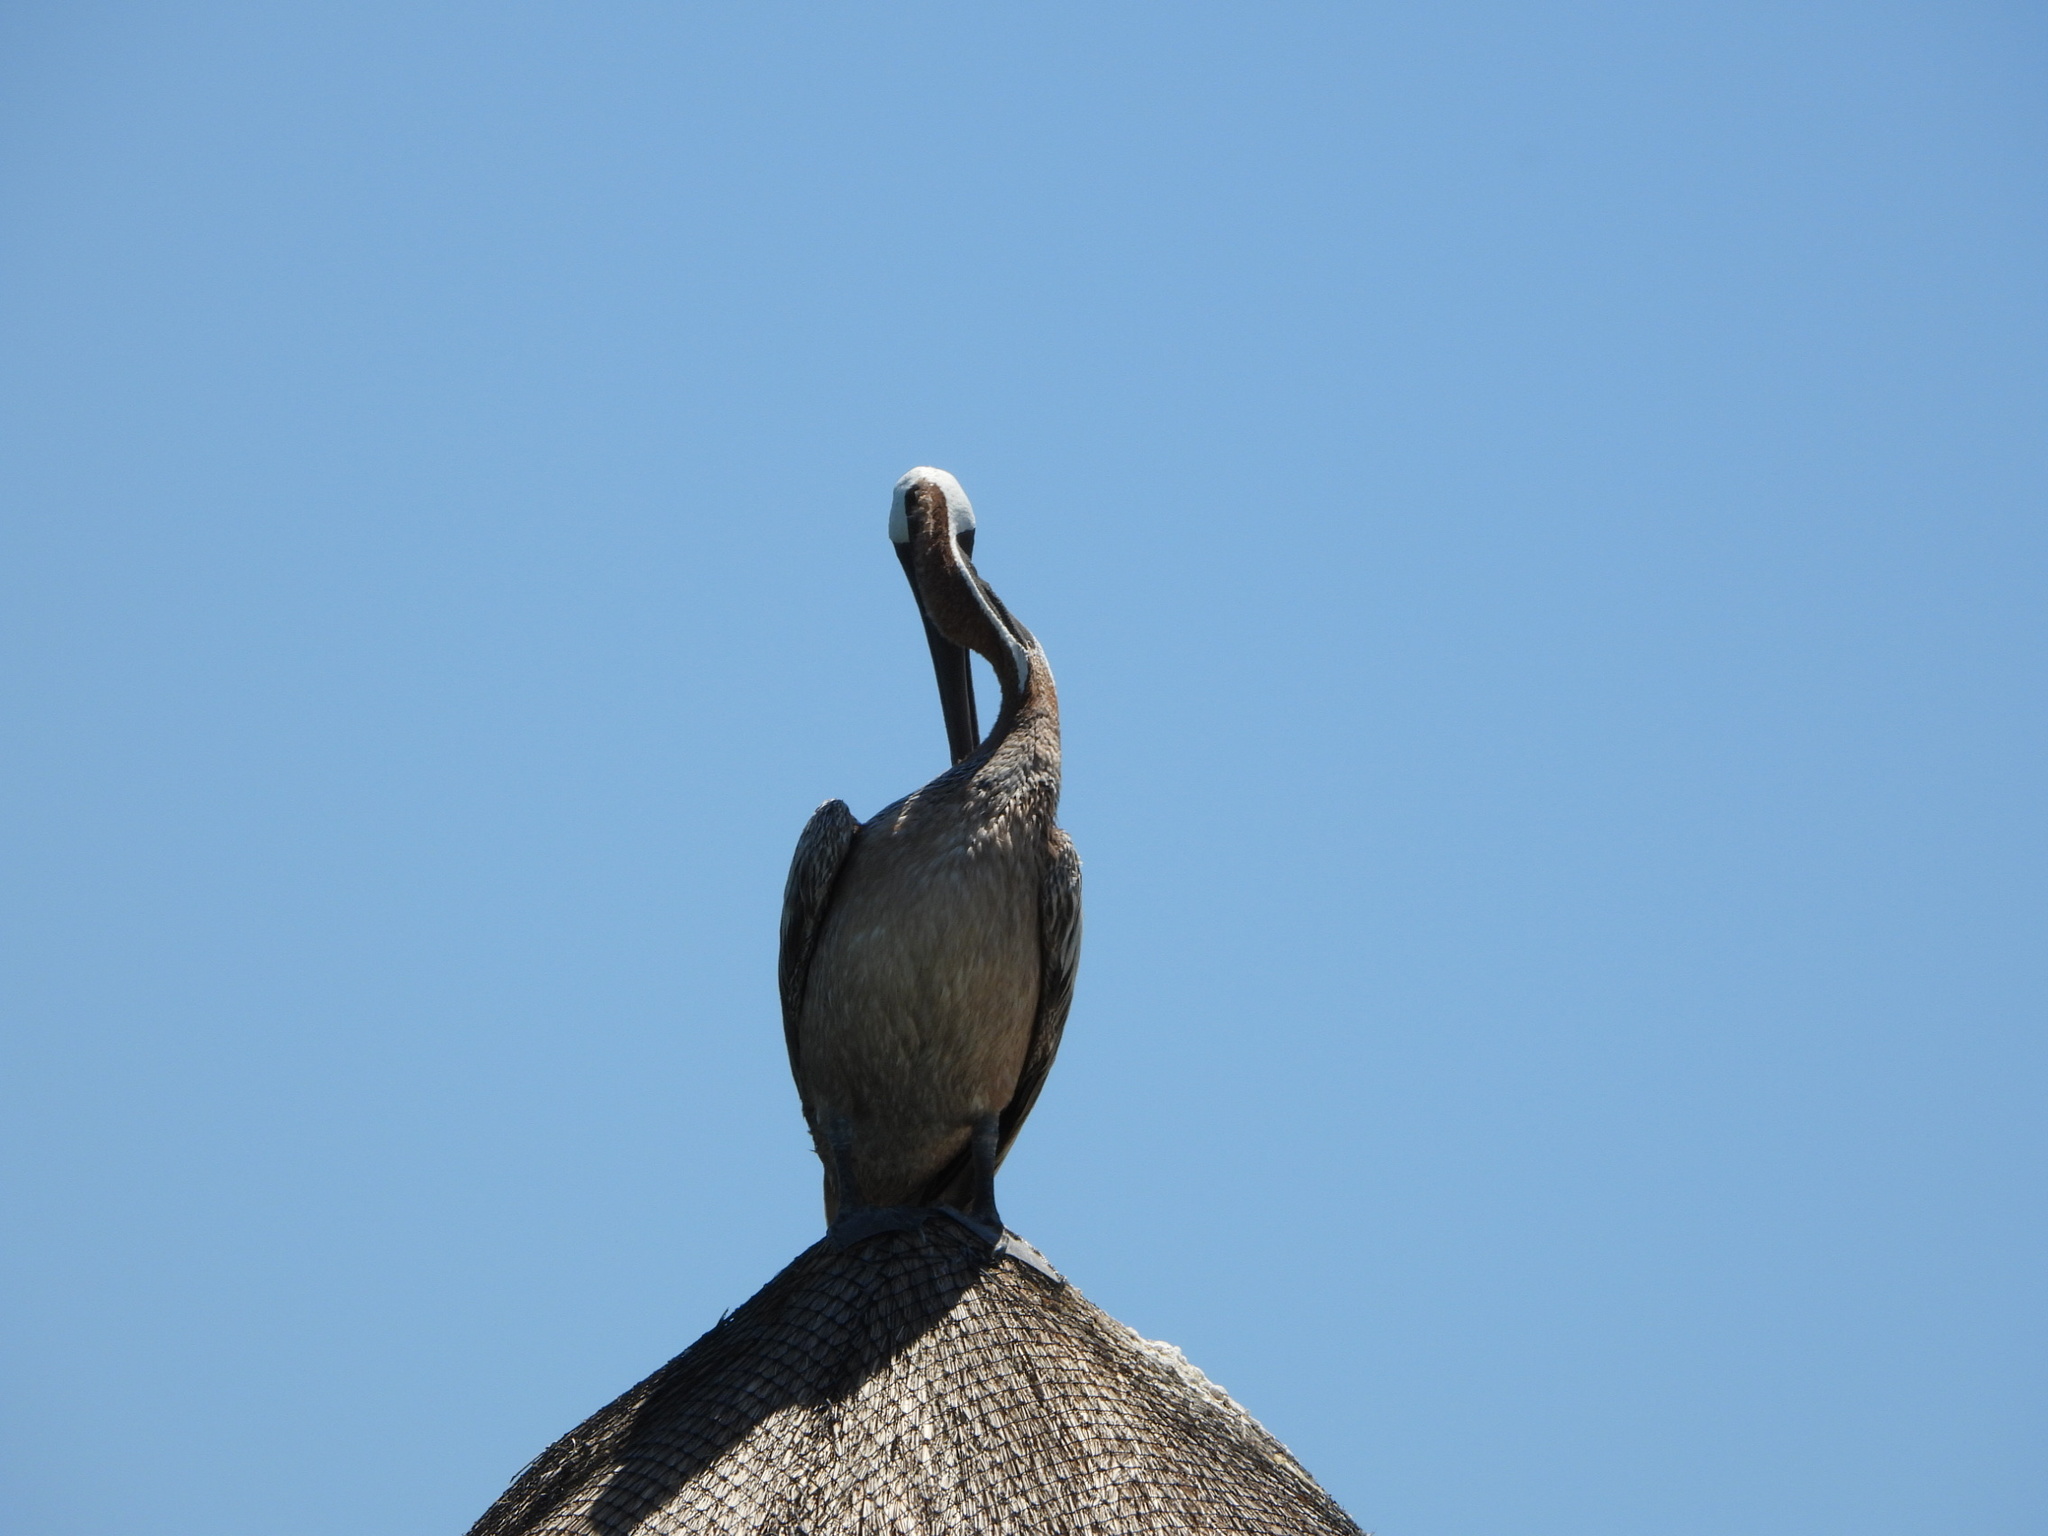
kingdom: Animalia
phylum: Chordata
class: Aves
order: Pelecaniformes
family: Pelecanidae
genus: Pelecanus
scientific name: Pelecanus occidentalis
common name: Brown pelican
